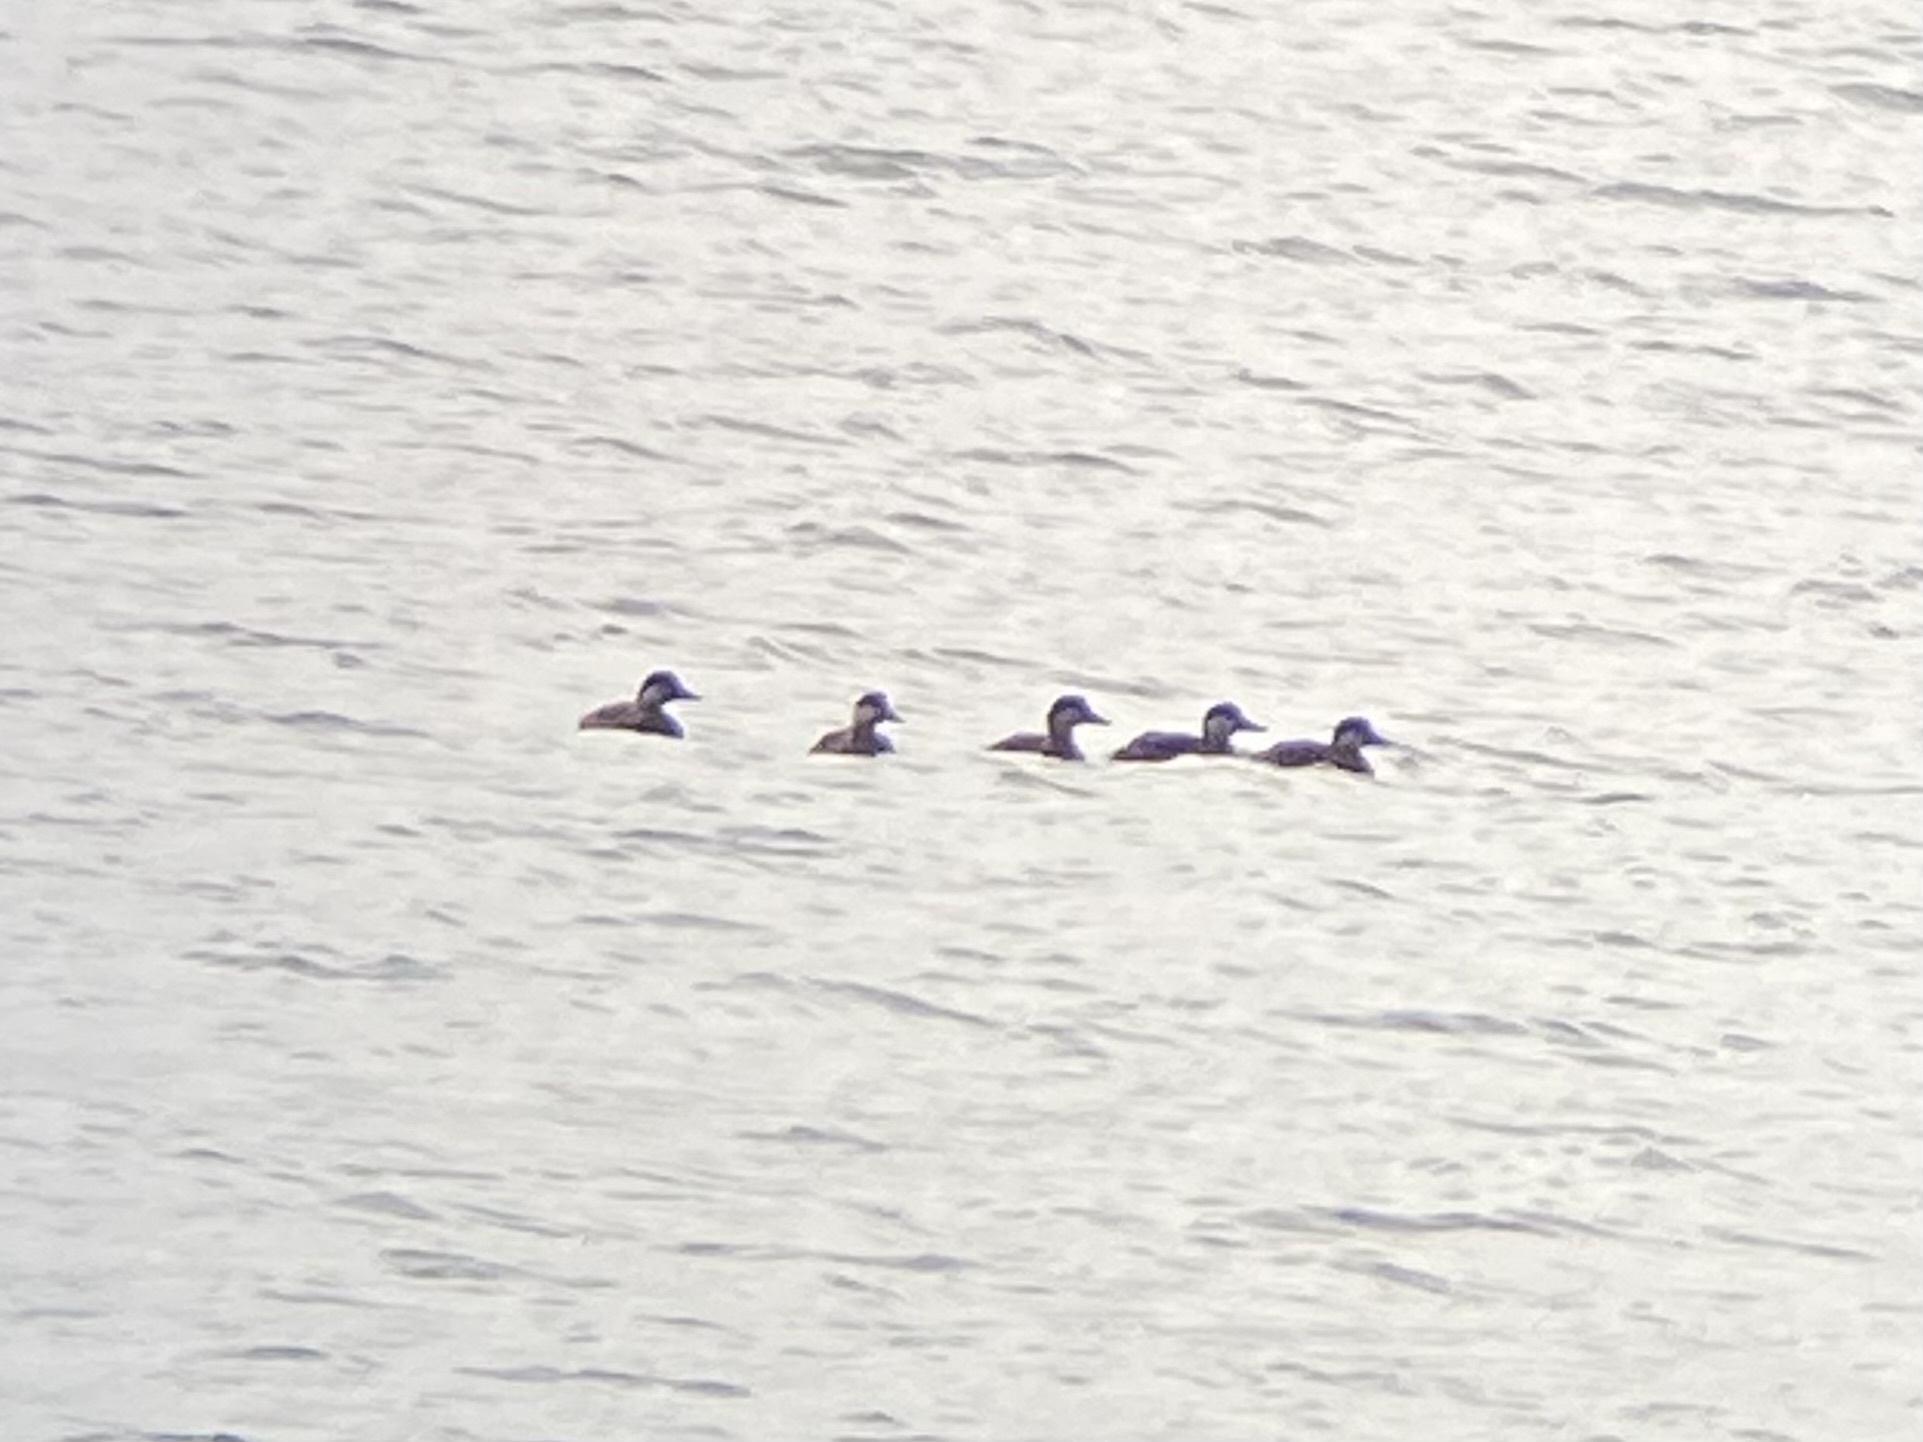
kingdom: Animalia
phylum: Chordata
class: Aves
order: Anseriformes
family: Anatidae
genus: Melanitta
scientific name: Melanitta americana
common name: Black scoter
